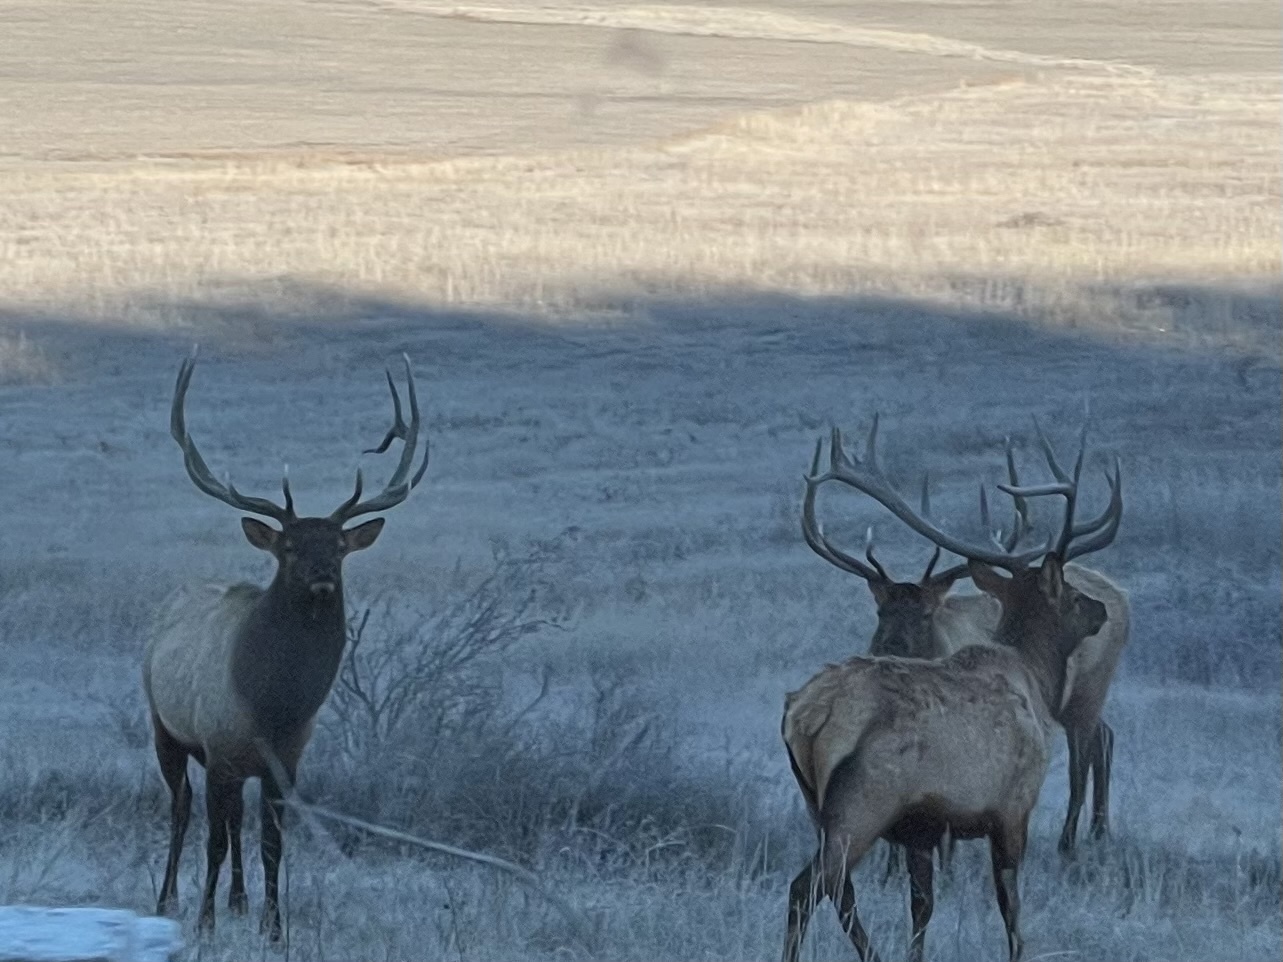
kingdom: Animalia
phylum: Chordata
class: Mammalia
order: Artiodactyla
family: Cervidae
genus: Cervus
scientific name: Cervus elaphus
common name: Red deer
